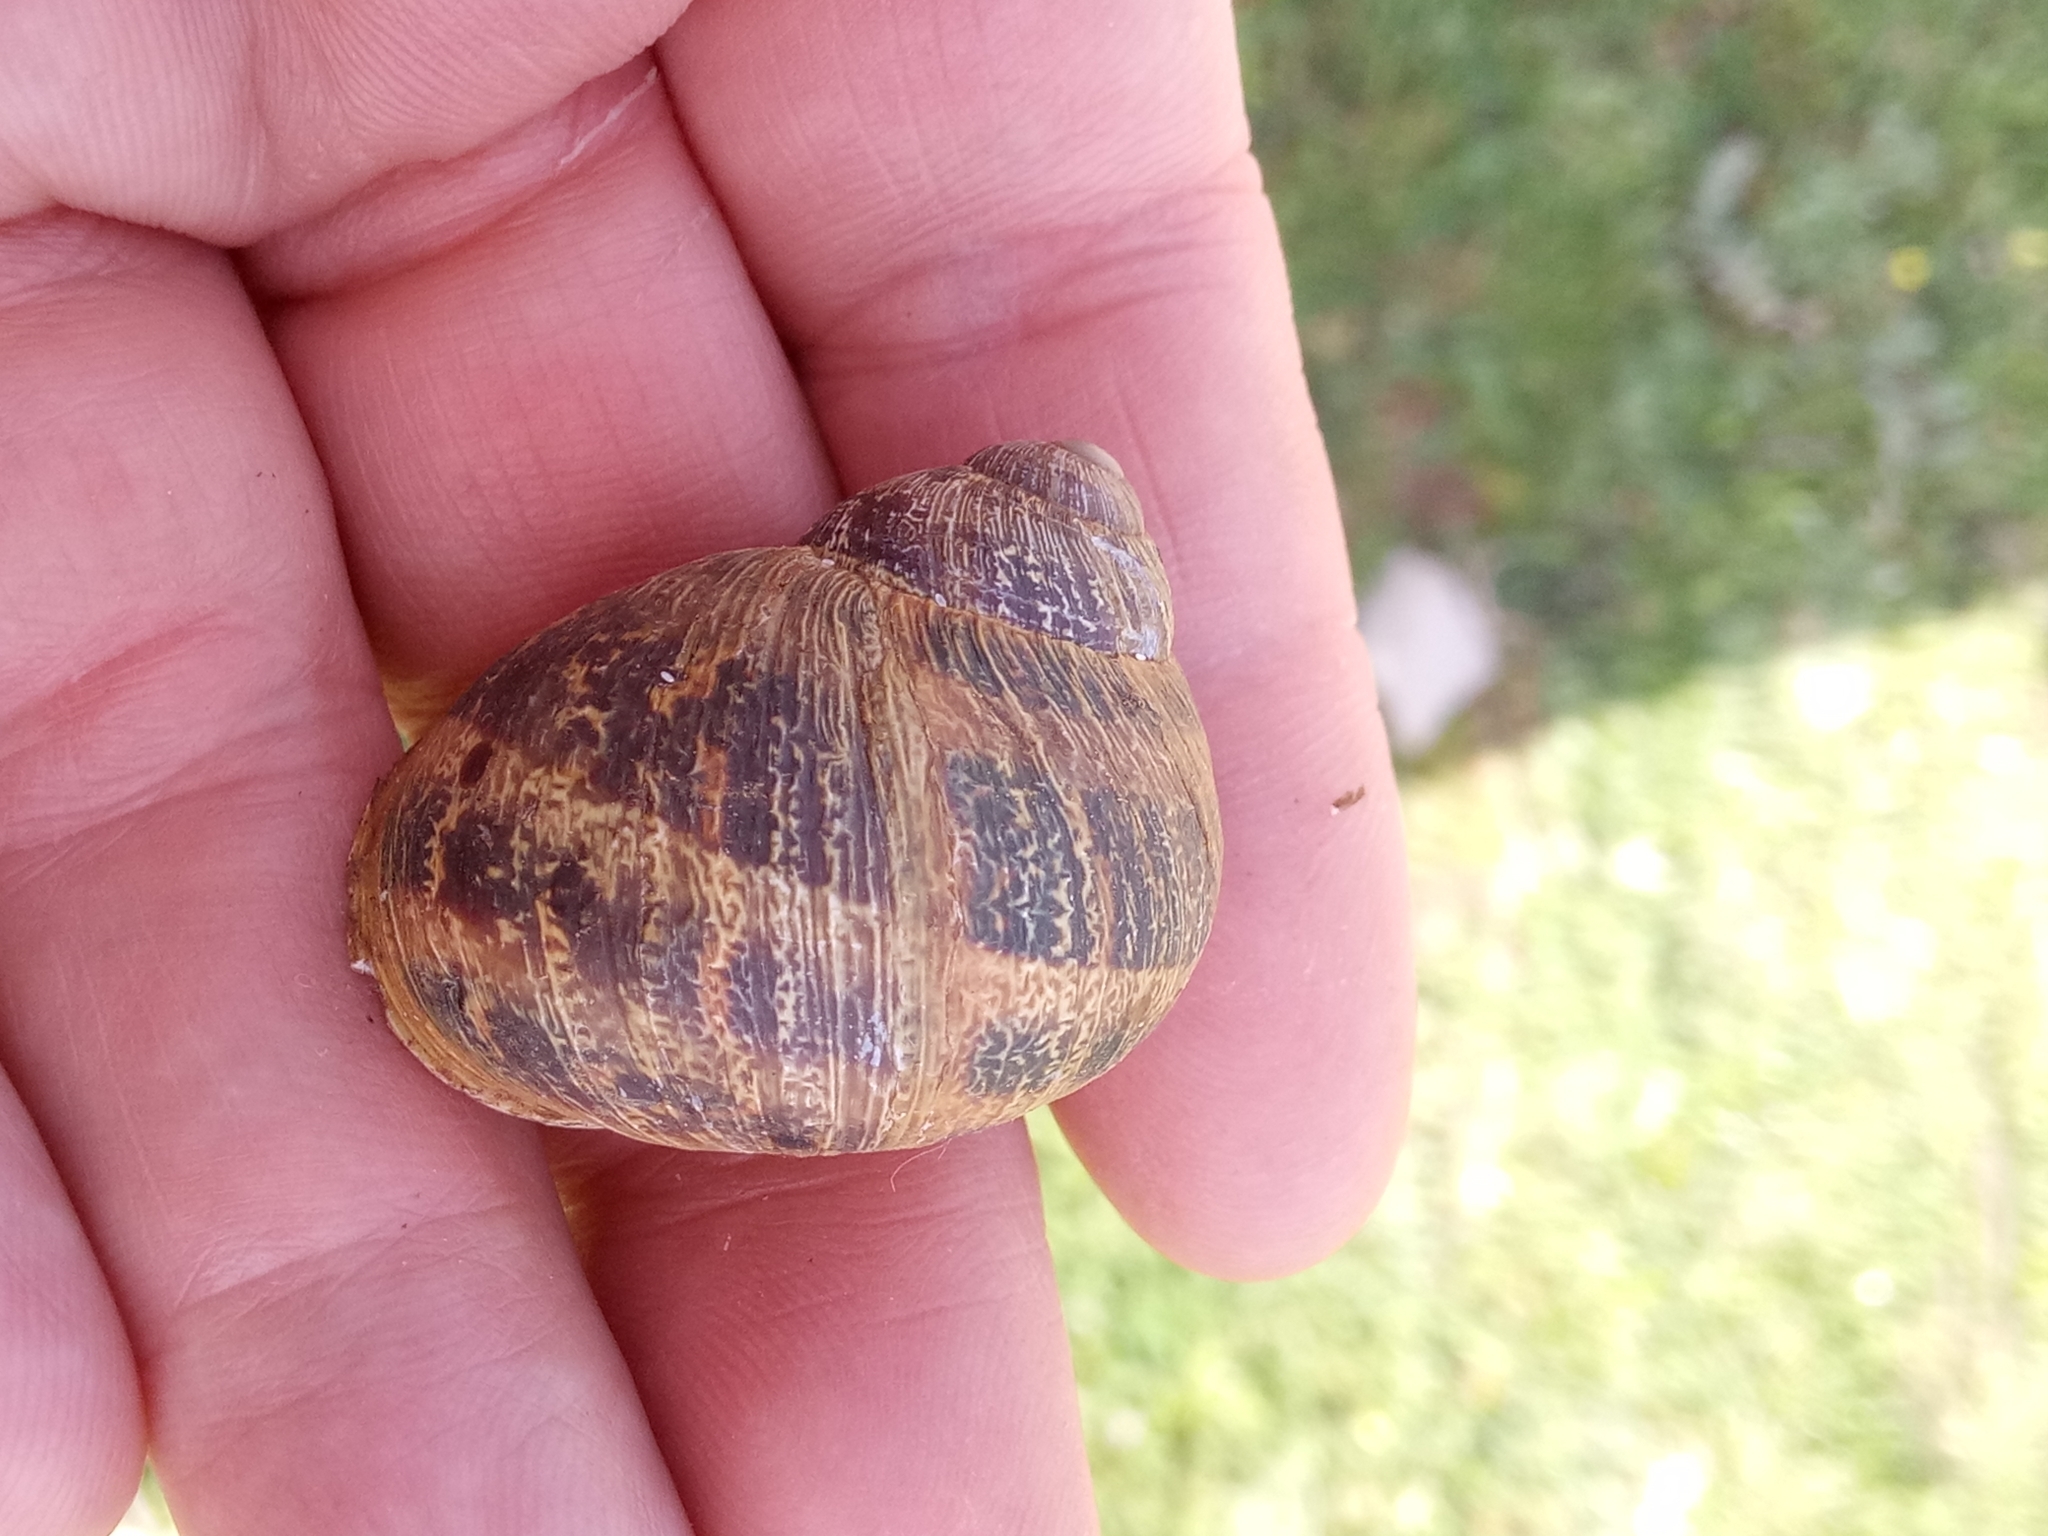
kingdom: Animalia
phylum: Mollusca
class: Gastropoda
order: Stylommatophora
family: Helicidae
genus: Cornu
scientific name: Cornu aspersum
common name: Brown garden snail
